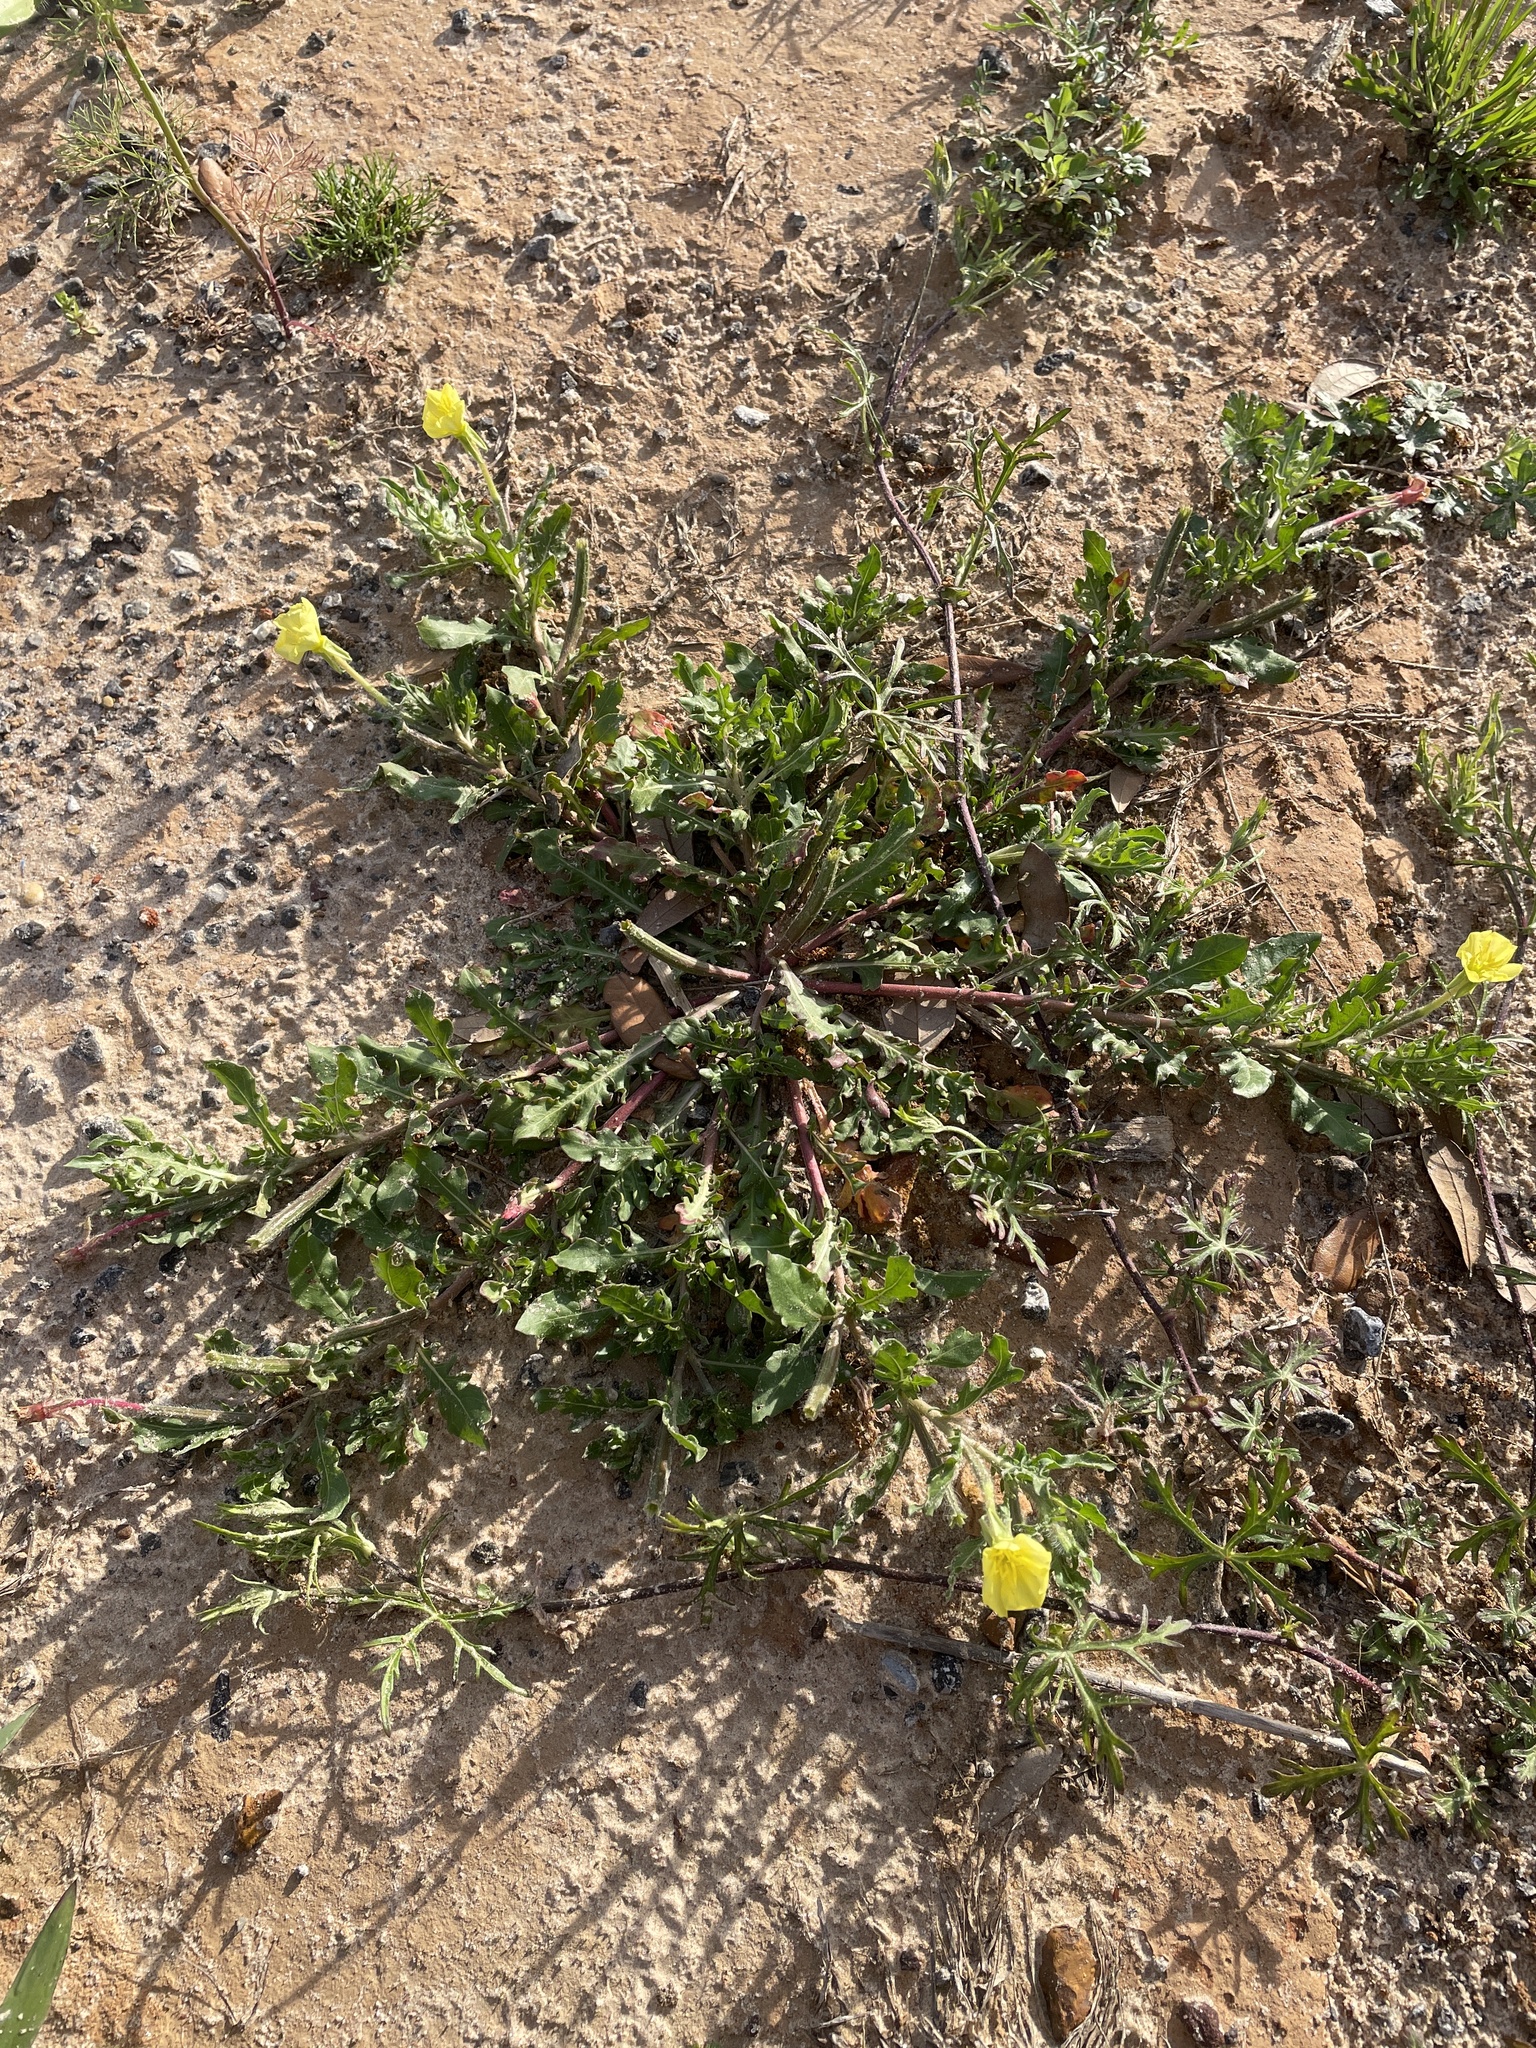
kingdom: Plantae
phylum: Tracheophyta
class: Magnoliopsida
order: Myrtales
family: Onagraceae
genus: Oenothera
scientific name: Oenothera laciniata
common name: Cut-leaved evening-primrose
